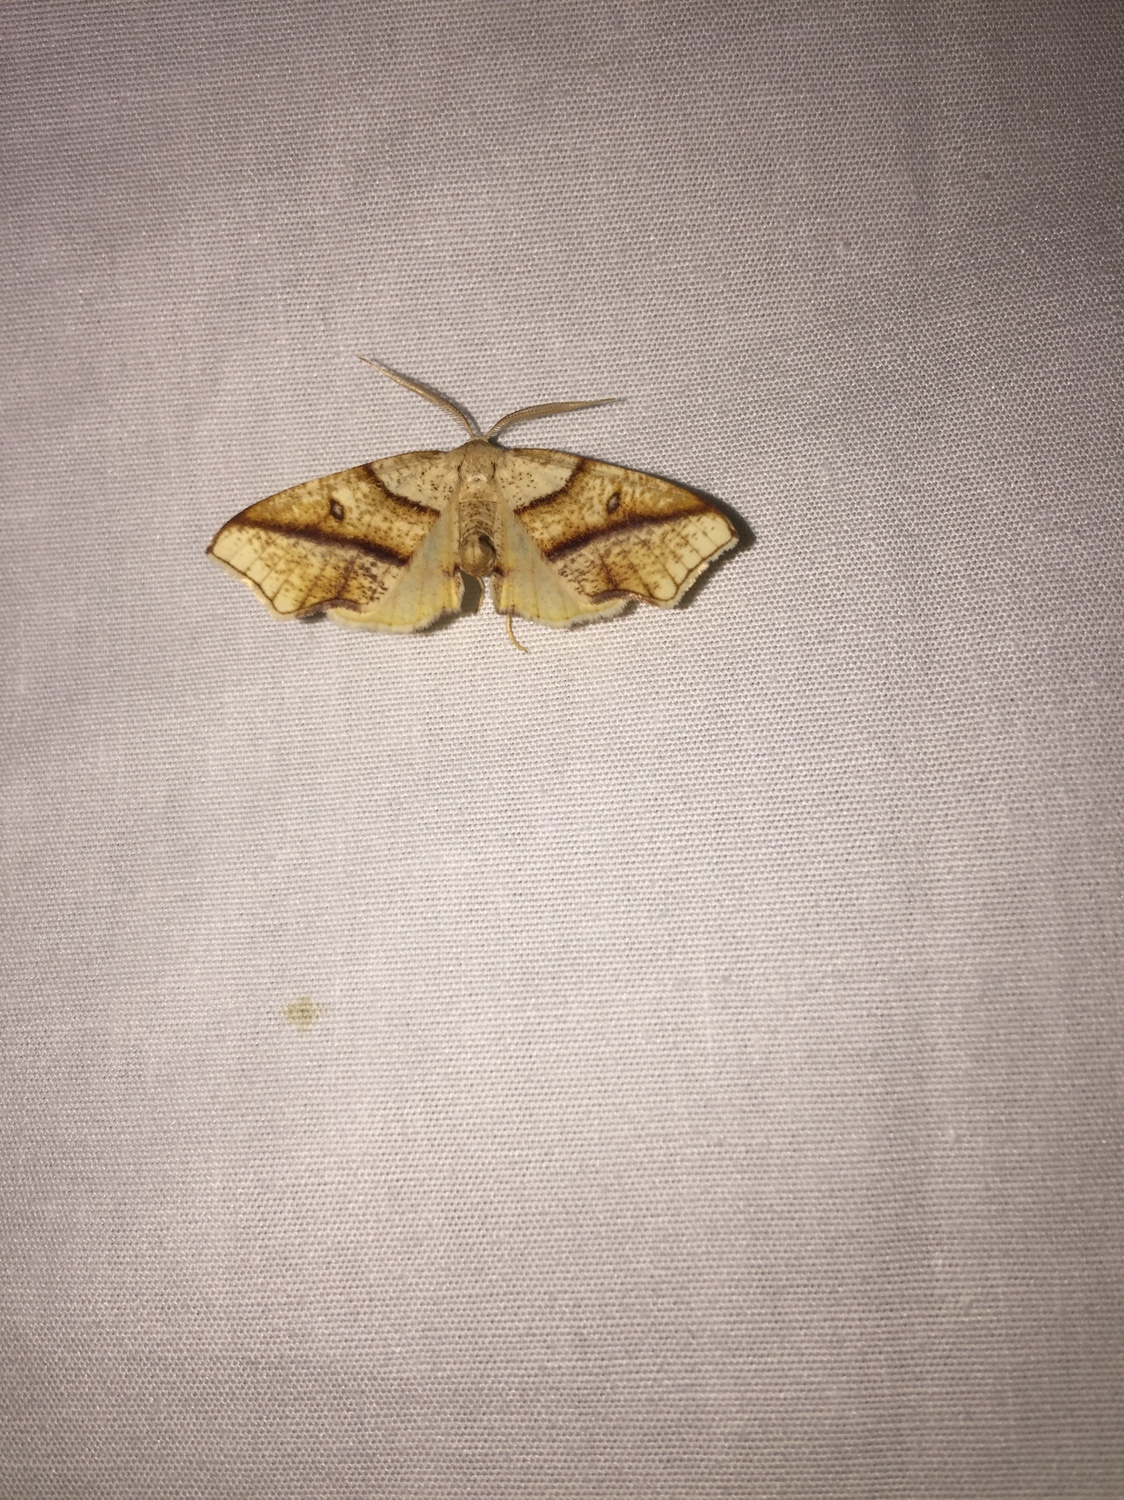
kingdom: Animalia
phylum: Arthropoda
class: Insecta
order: Lepidoptera
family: Geometridae
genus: Plagodis
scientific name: Plagodis alcoolaria
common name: Hollow-spotted plagodis
